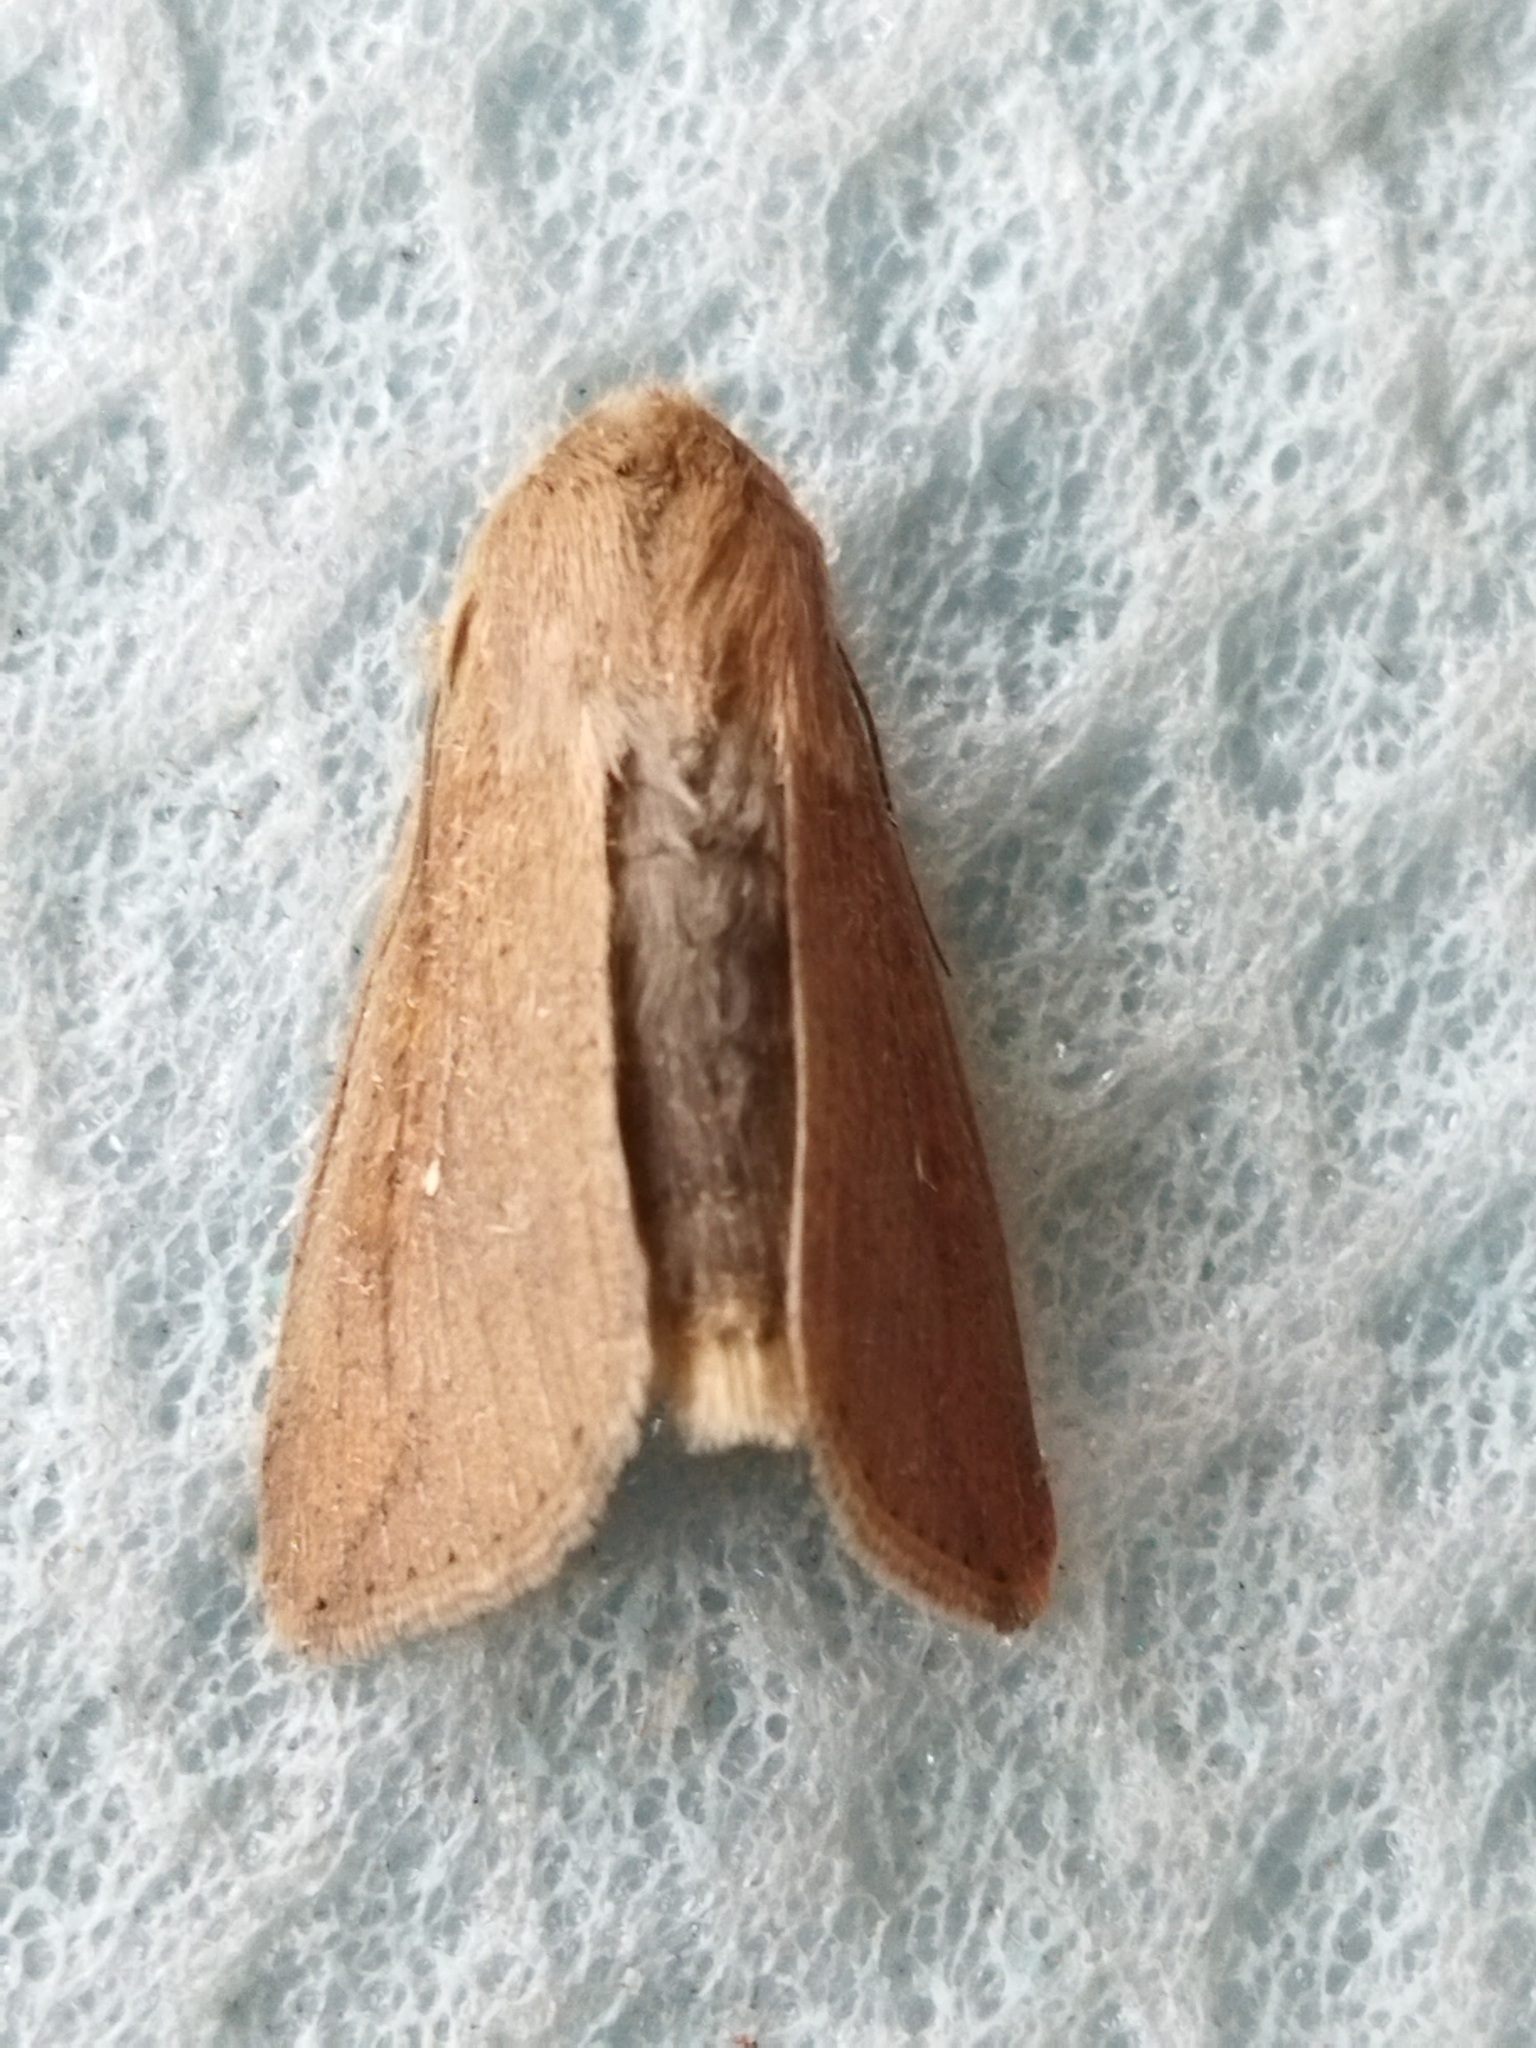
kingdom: Animalia
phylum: Arthropoda
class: Insecta
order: Lepidoptera
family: Noctuidae
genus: Mythimna
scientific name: Mythimna unipuncta
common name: White-speck
